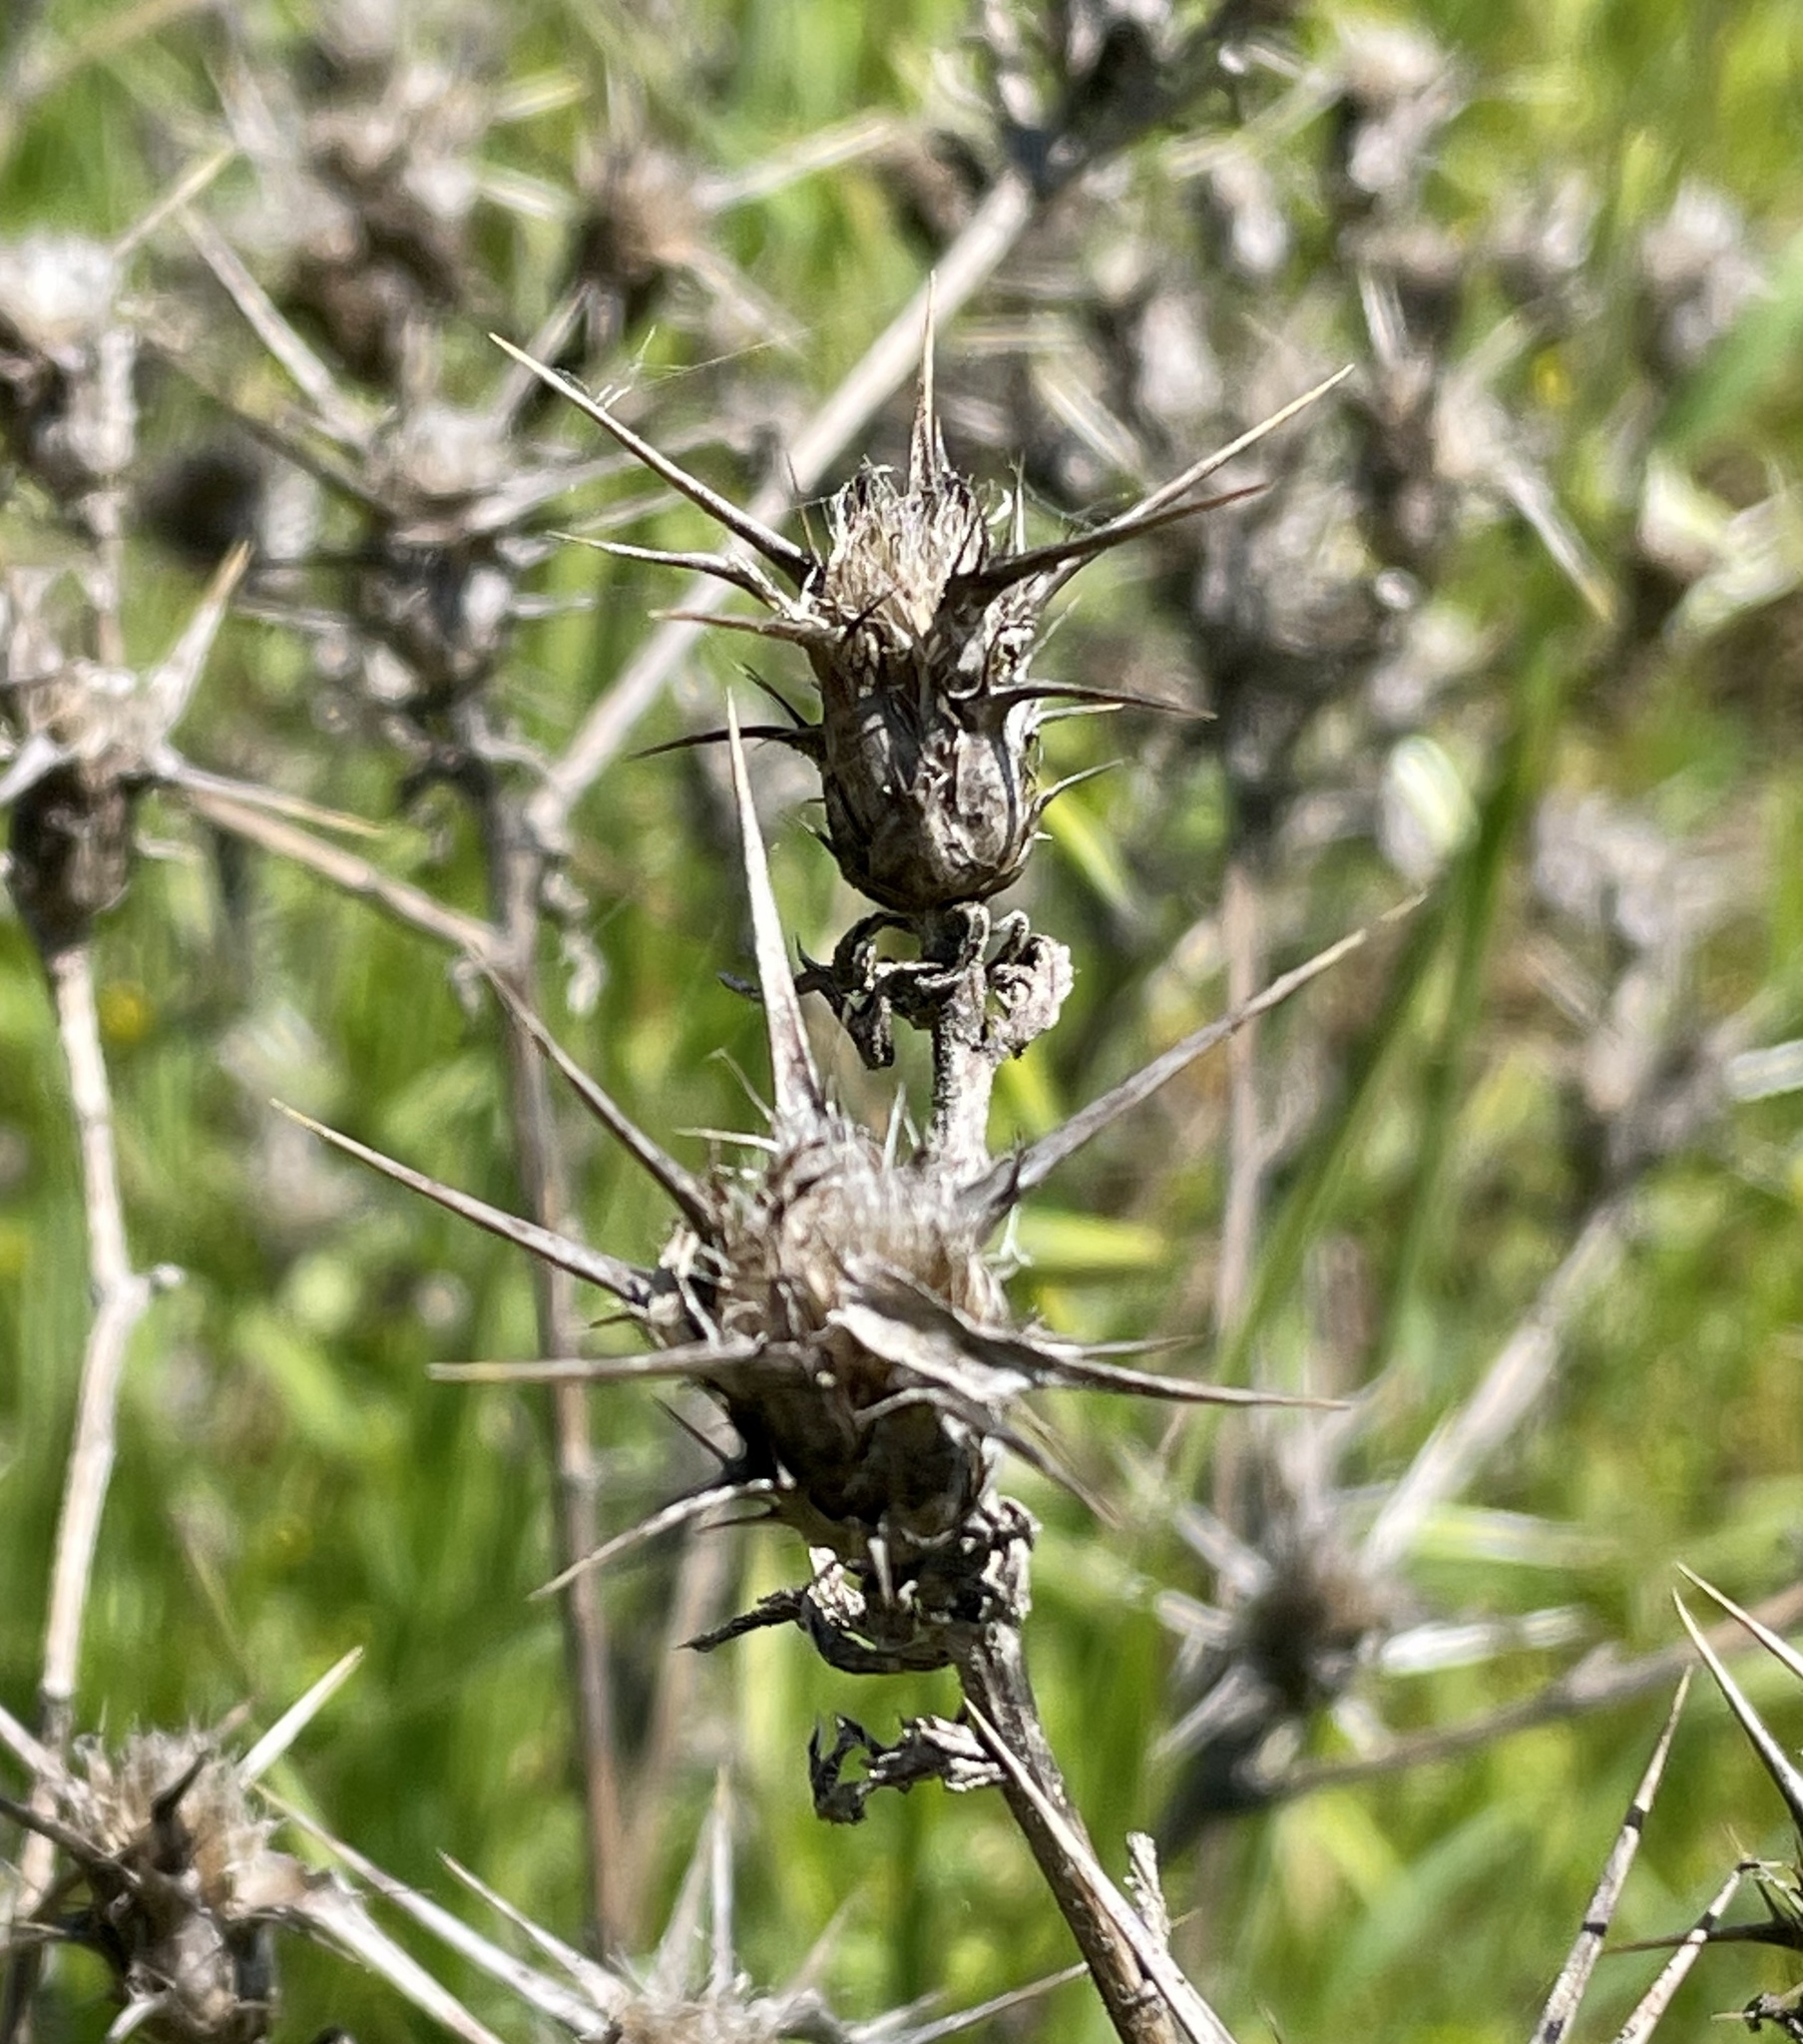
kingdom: Plantae
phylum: Tracheophyta
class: Magnoliopsida
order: Asterales
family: Asteraceae
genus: Centaurea
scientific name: Centaurea solstitialis
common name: Yellow star-thistle
